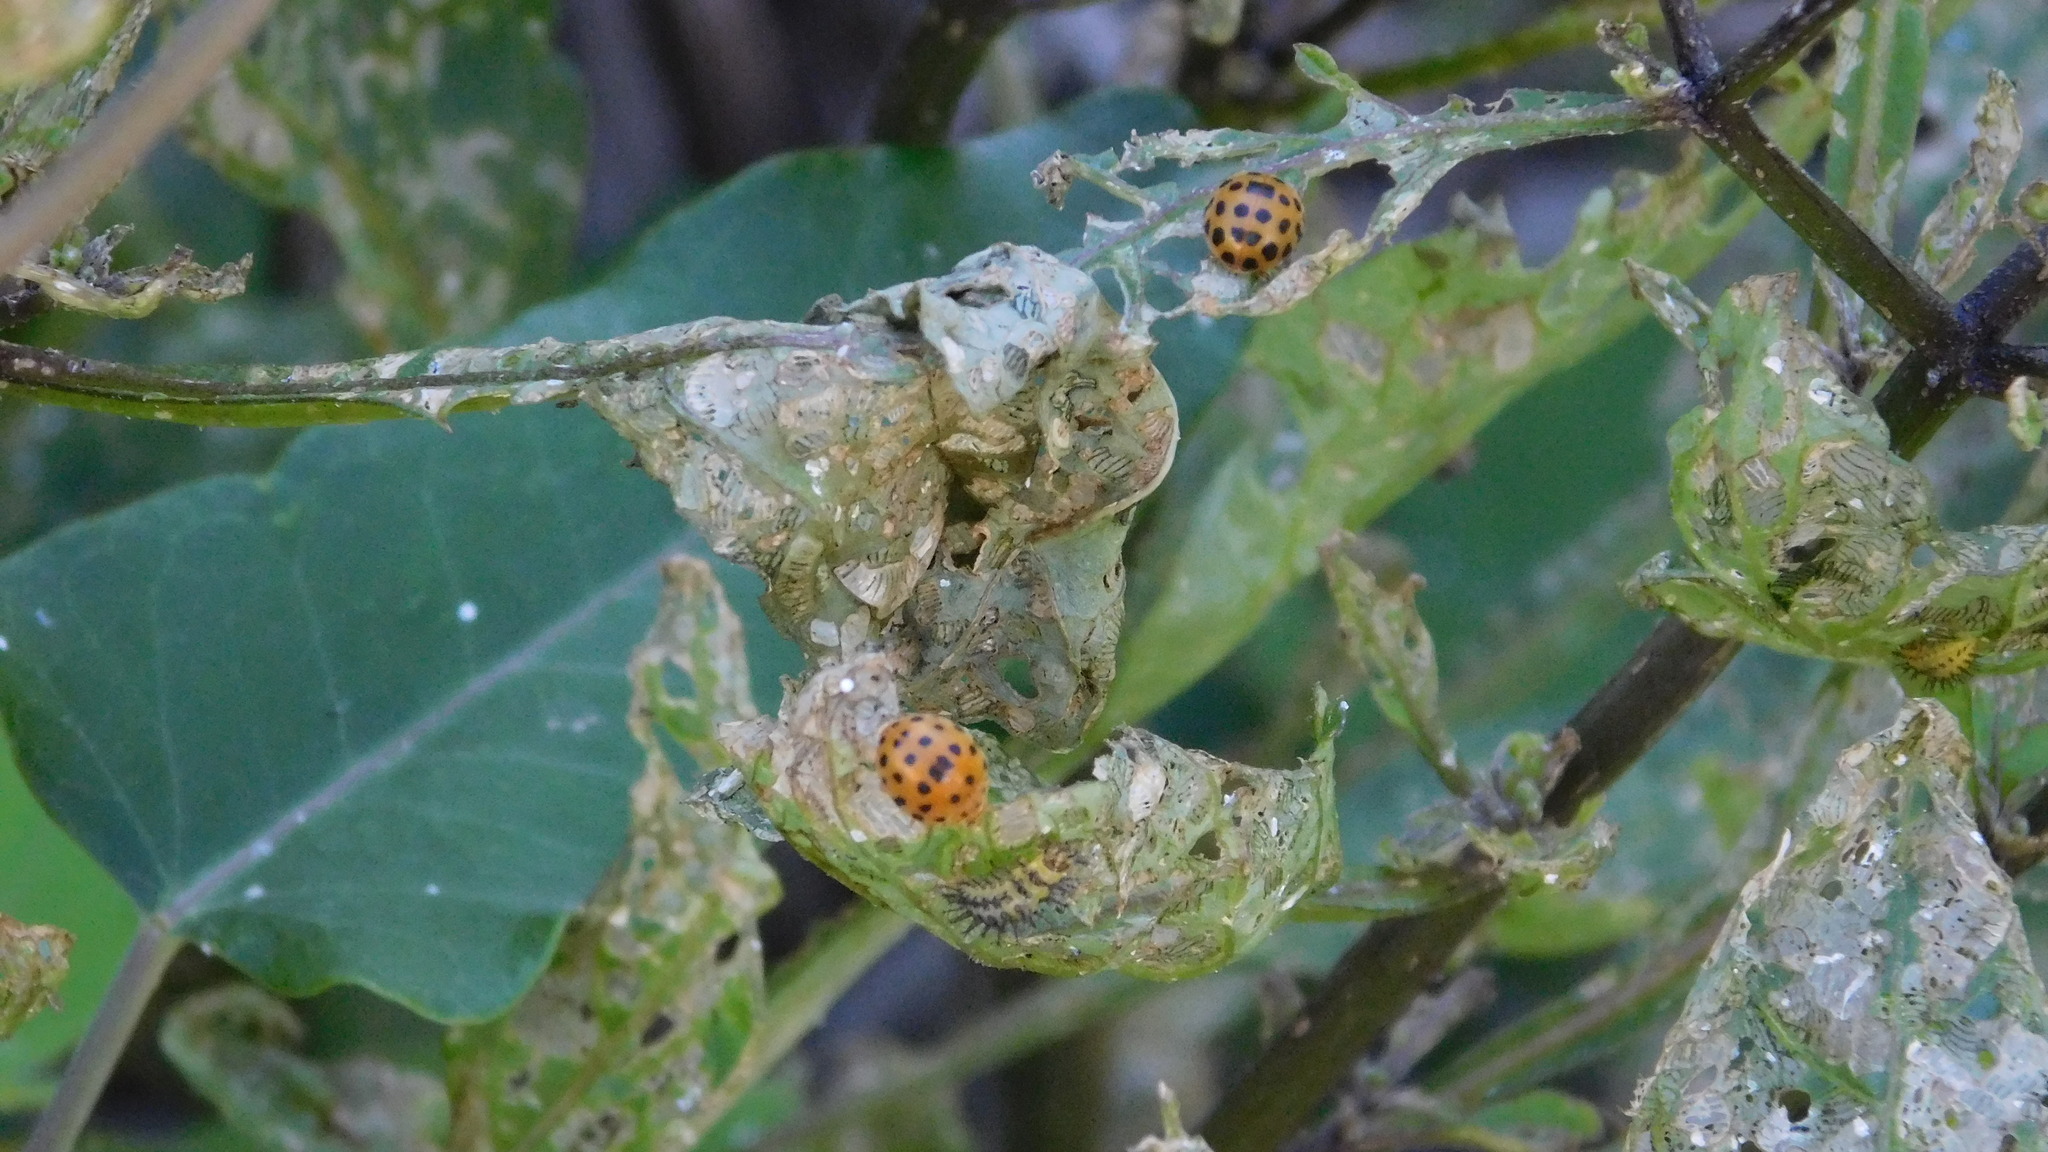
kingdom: Animalia
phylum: Arthropoda
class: Insecta
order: Coleoptera
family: Coccinellidae
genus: Henosepilachna
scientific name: Henosepilachna vigintioctopunctata
